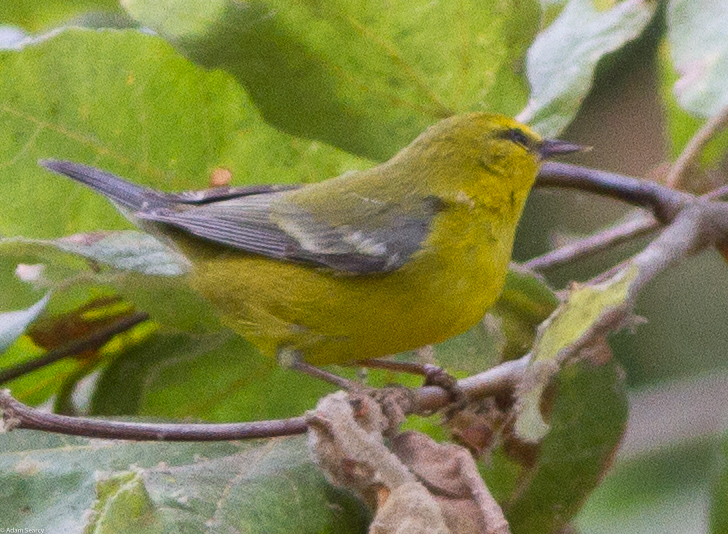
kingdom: Animalia
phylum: Chordata
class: Aves
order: Passeriformes
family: Parulidae
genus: Vermivora
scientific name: Vermivora cyanoptera
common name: Blue-winged warbler
